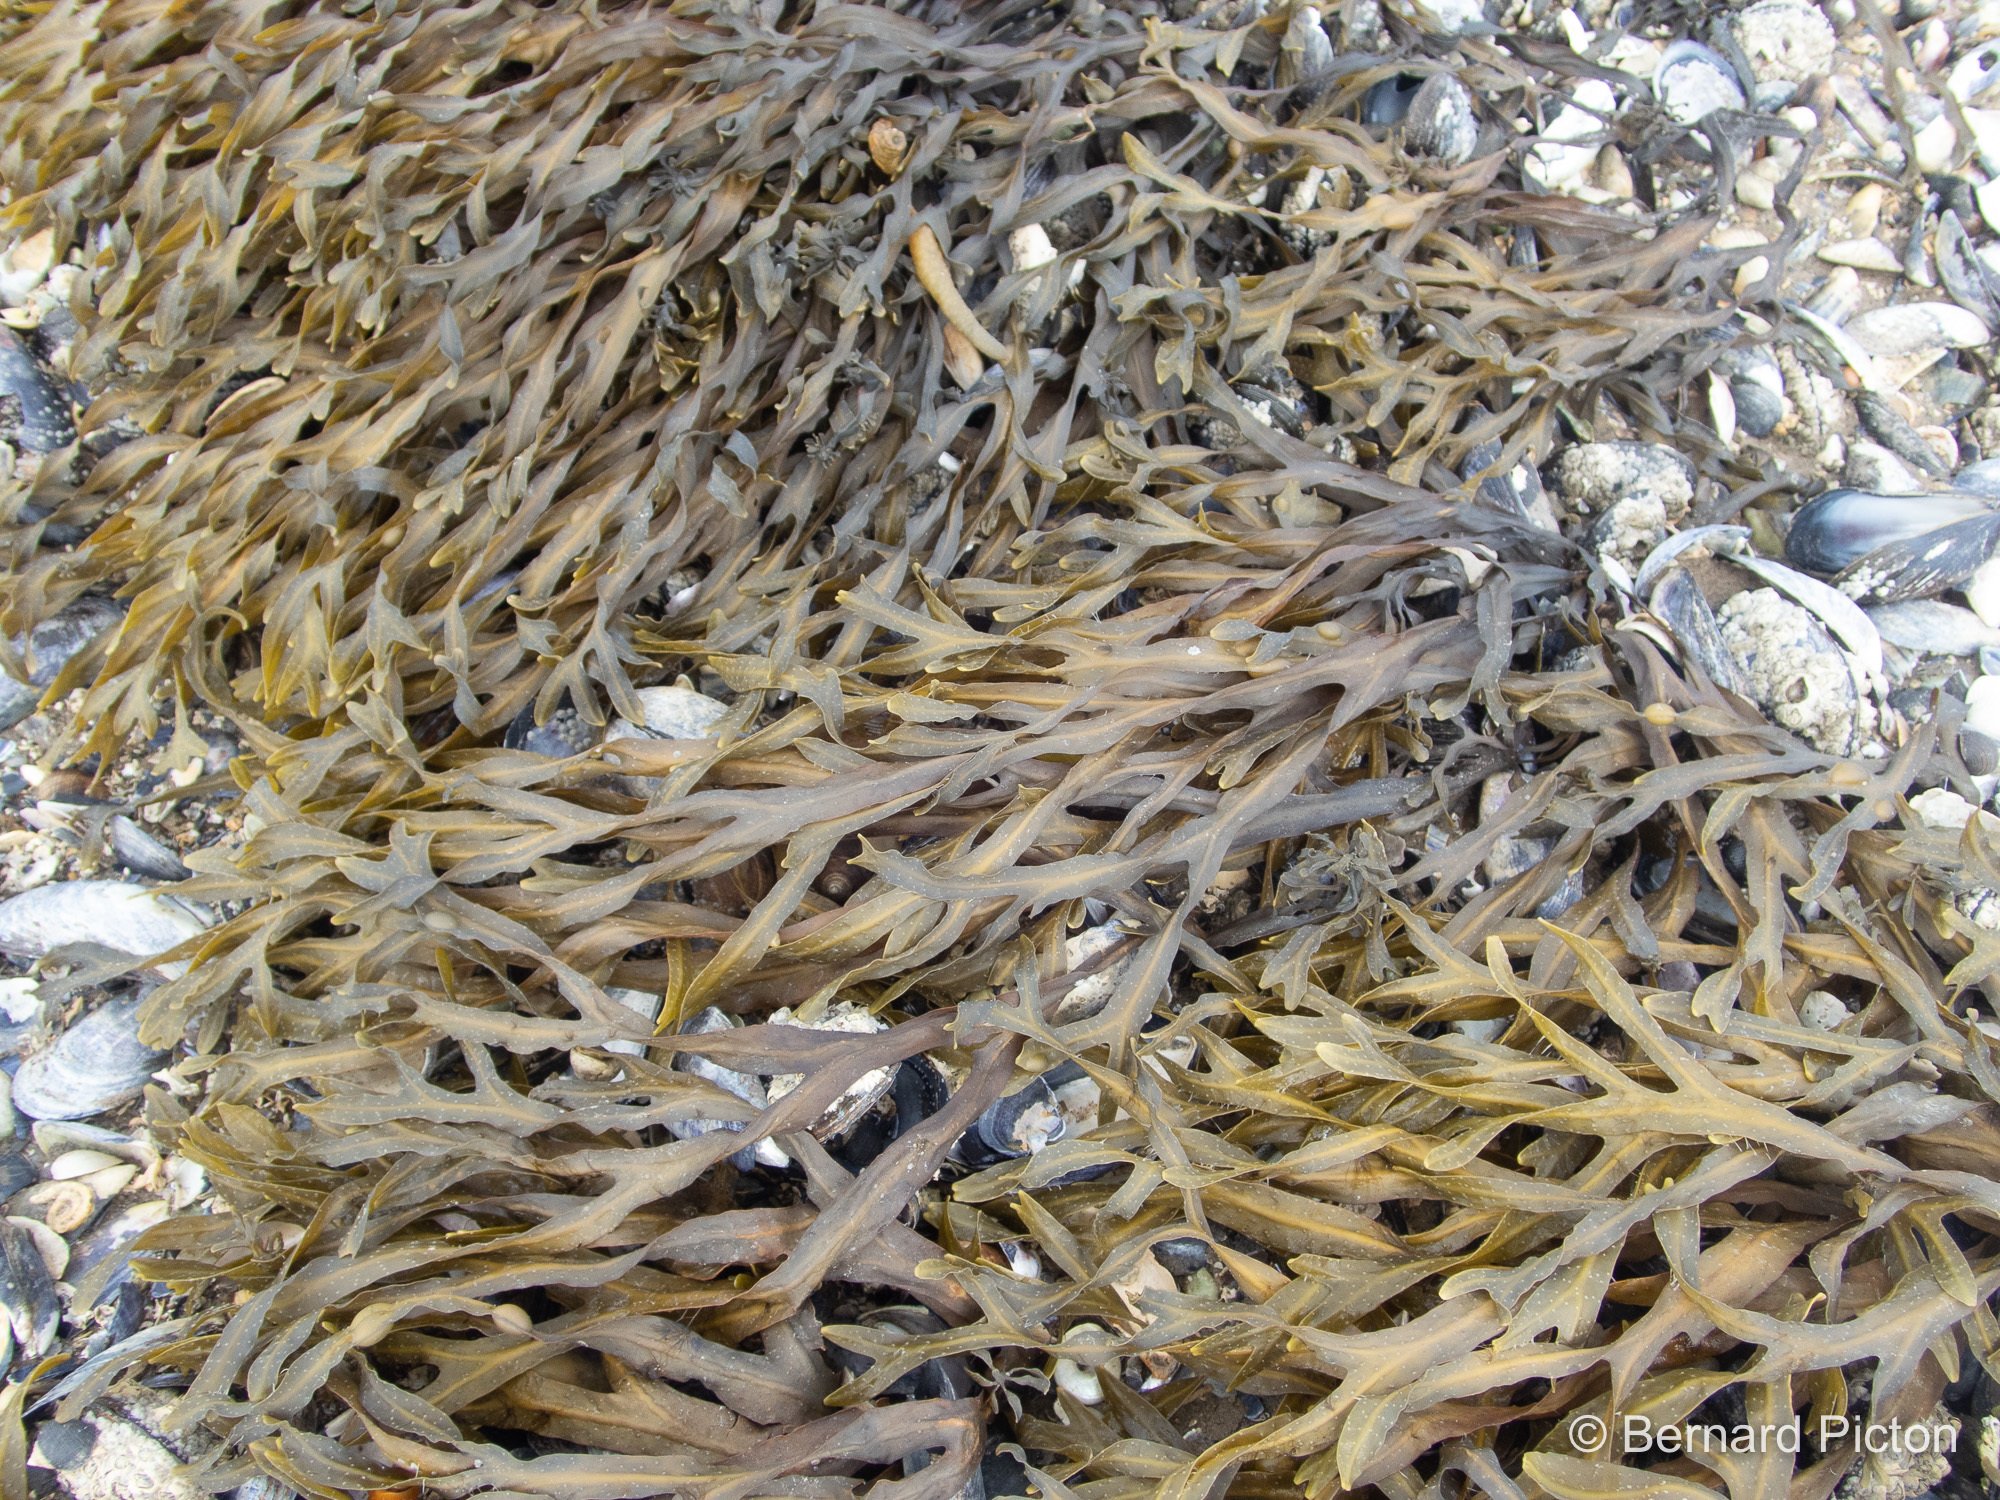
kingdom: Chromista
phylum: Ochrophyta
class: Phaeophyceae
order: Fucales
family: Fucaceae
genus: Fucus
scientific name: Fucus vesiculosus
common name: Bladder wrack
